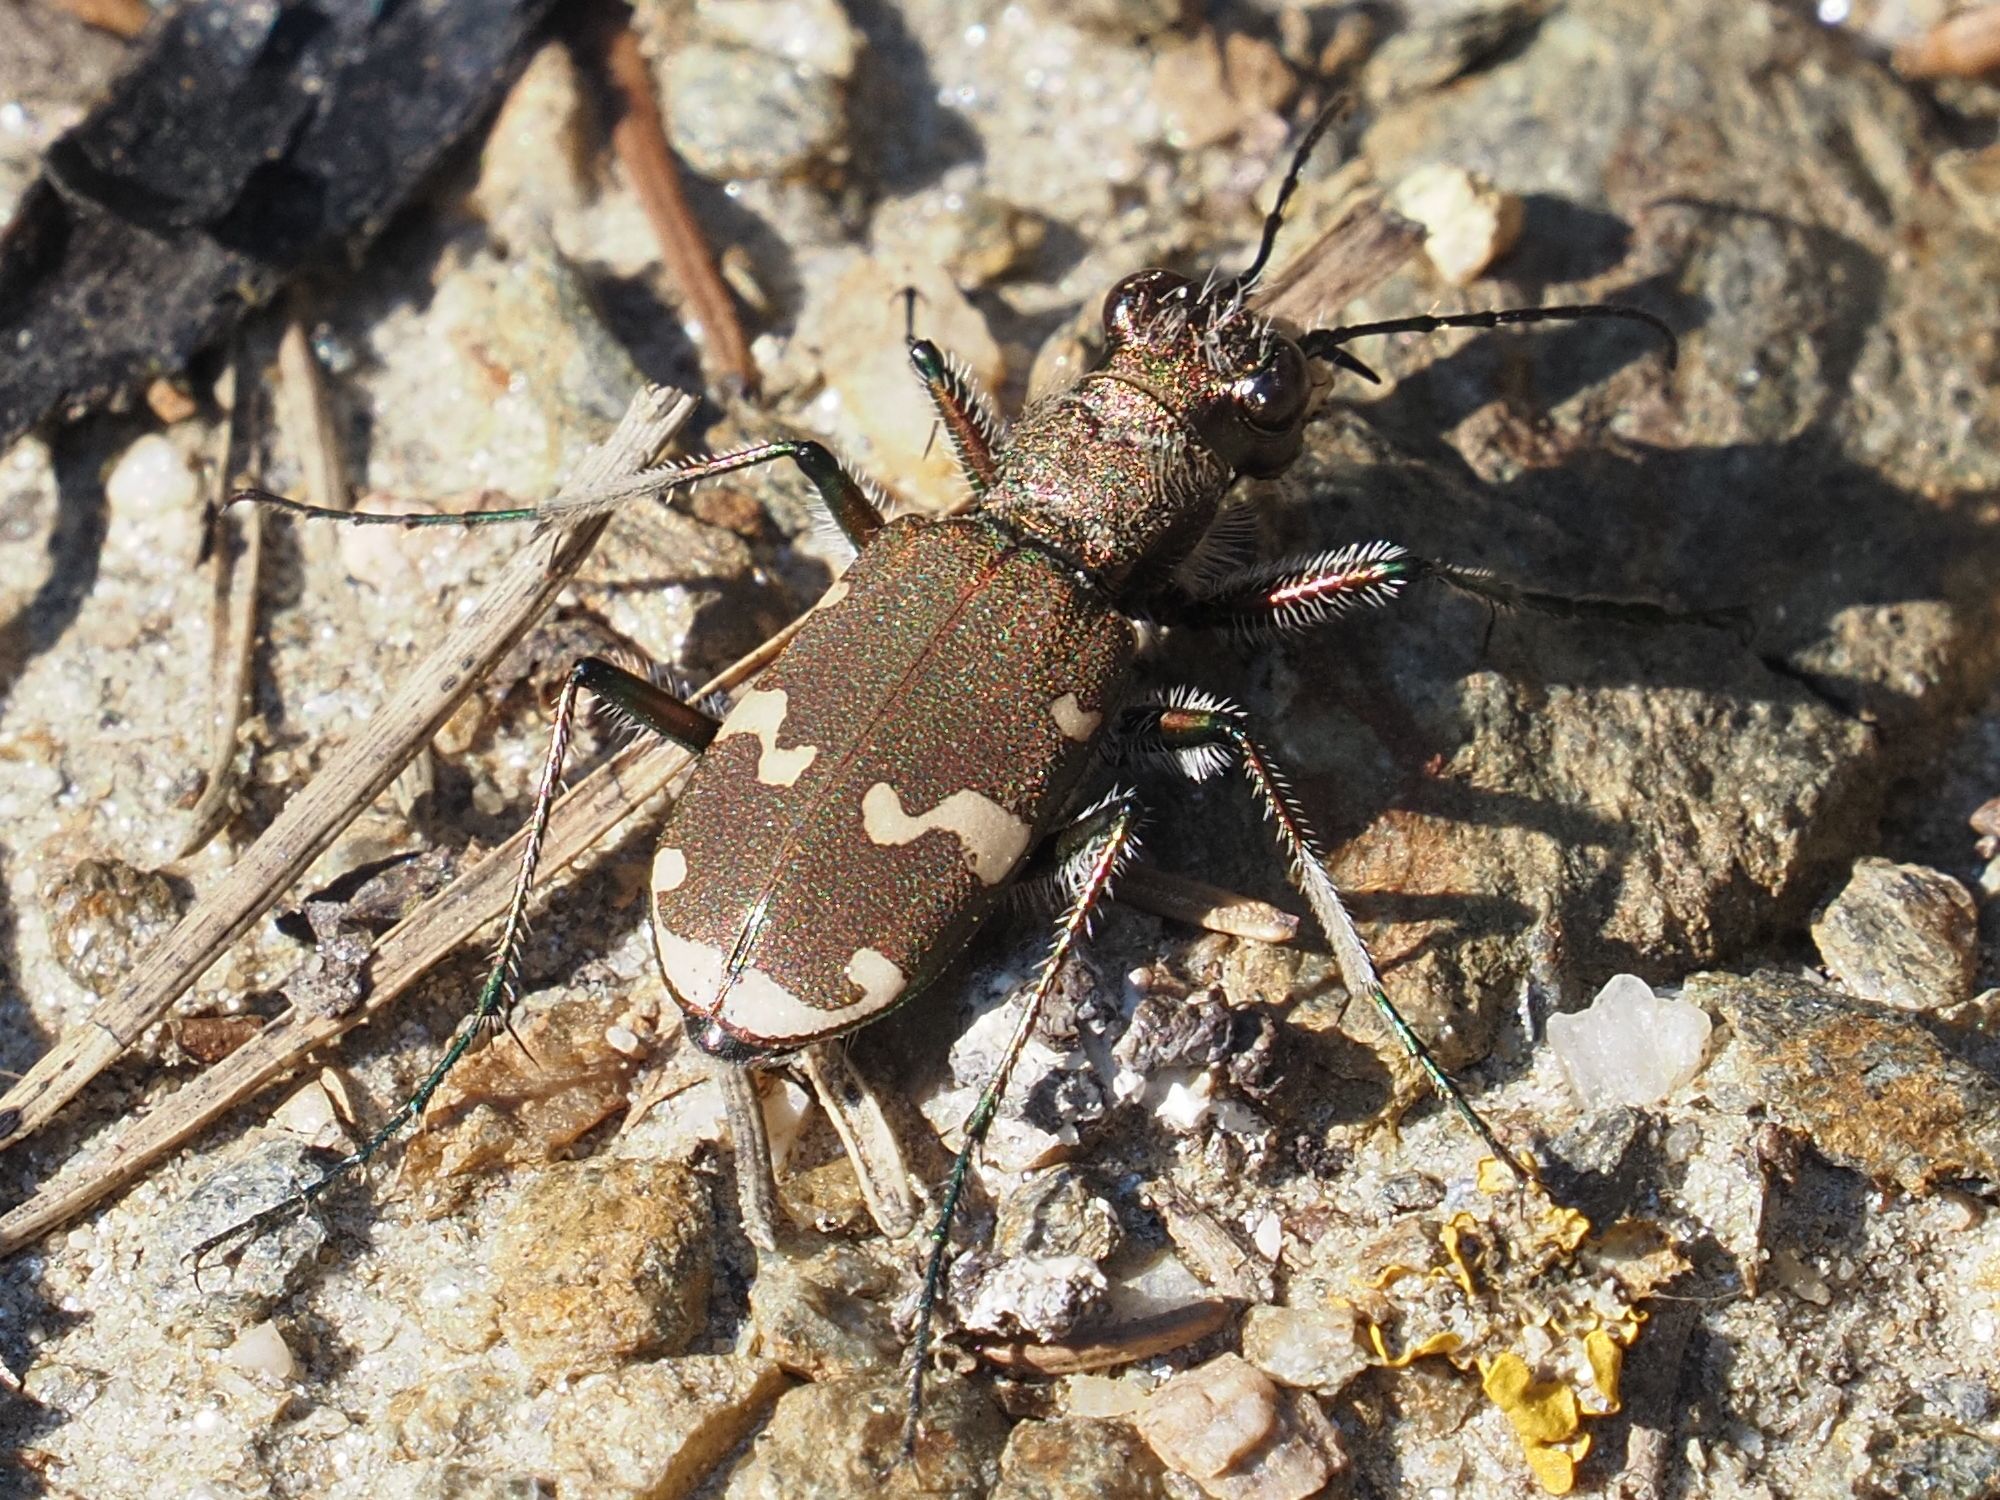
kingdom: Animalia
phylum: Arthropoda
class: Insecta
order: Coleoptera
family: Carabidae
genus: Cicindela
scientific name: Cicindela sylvicola
